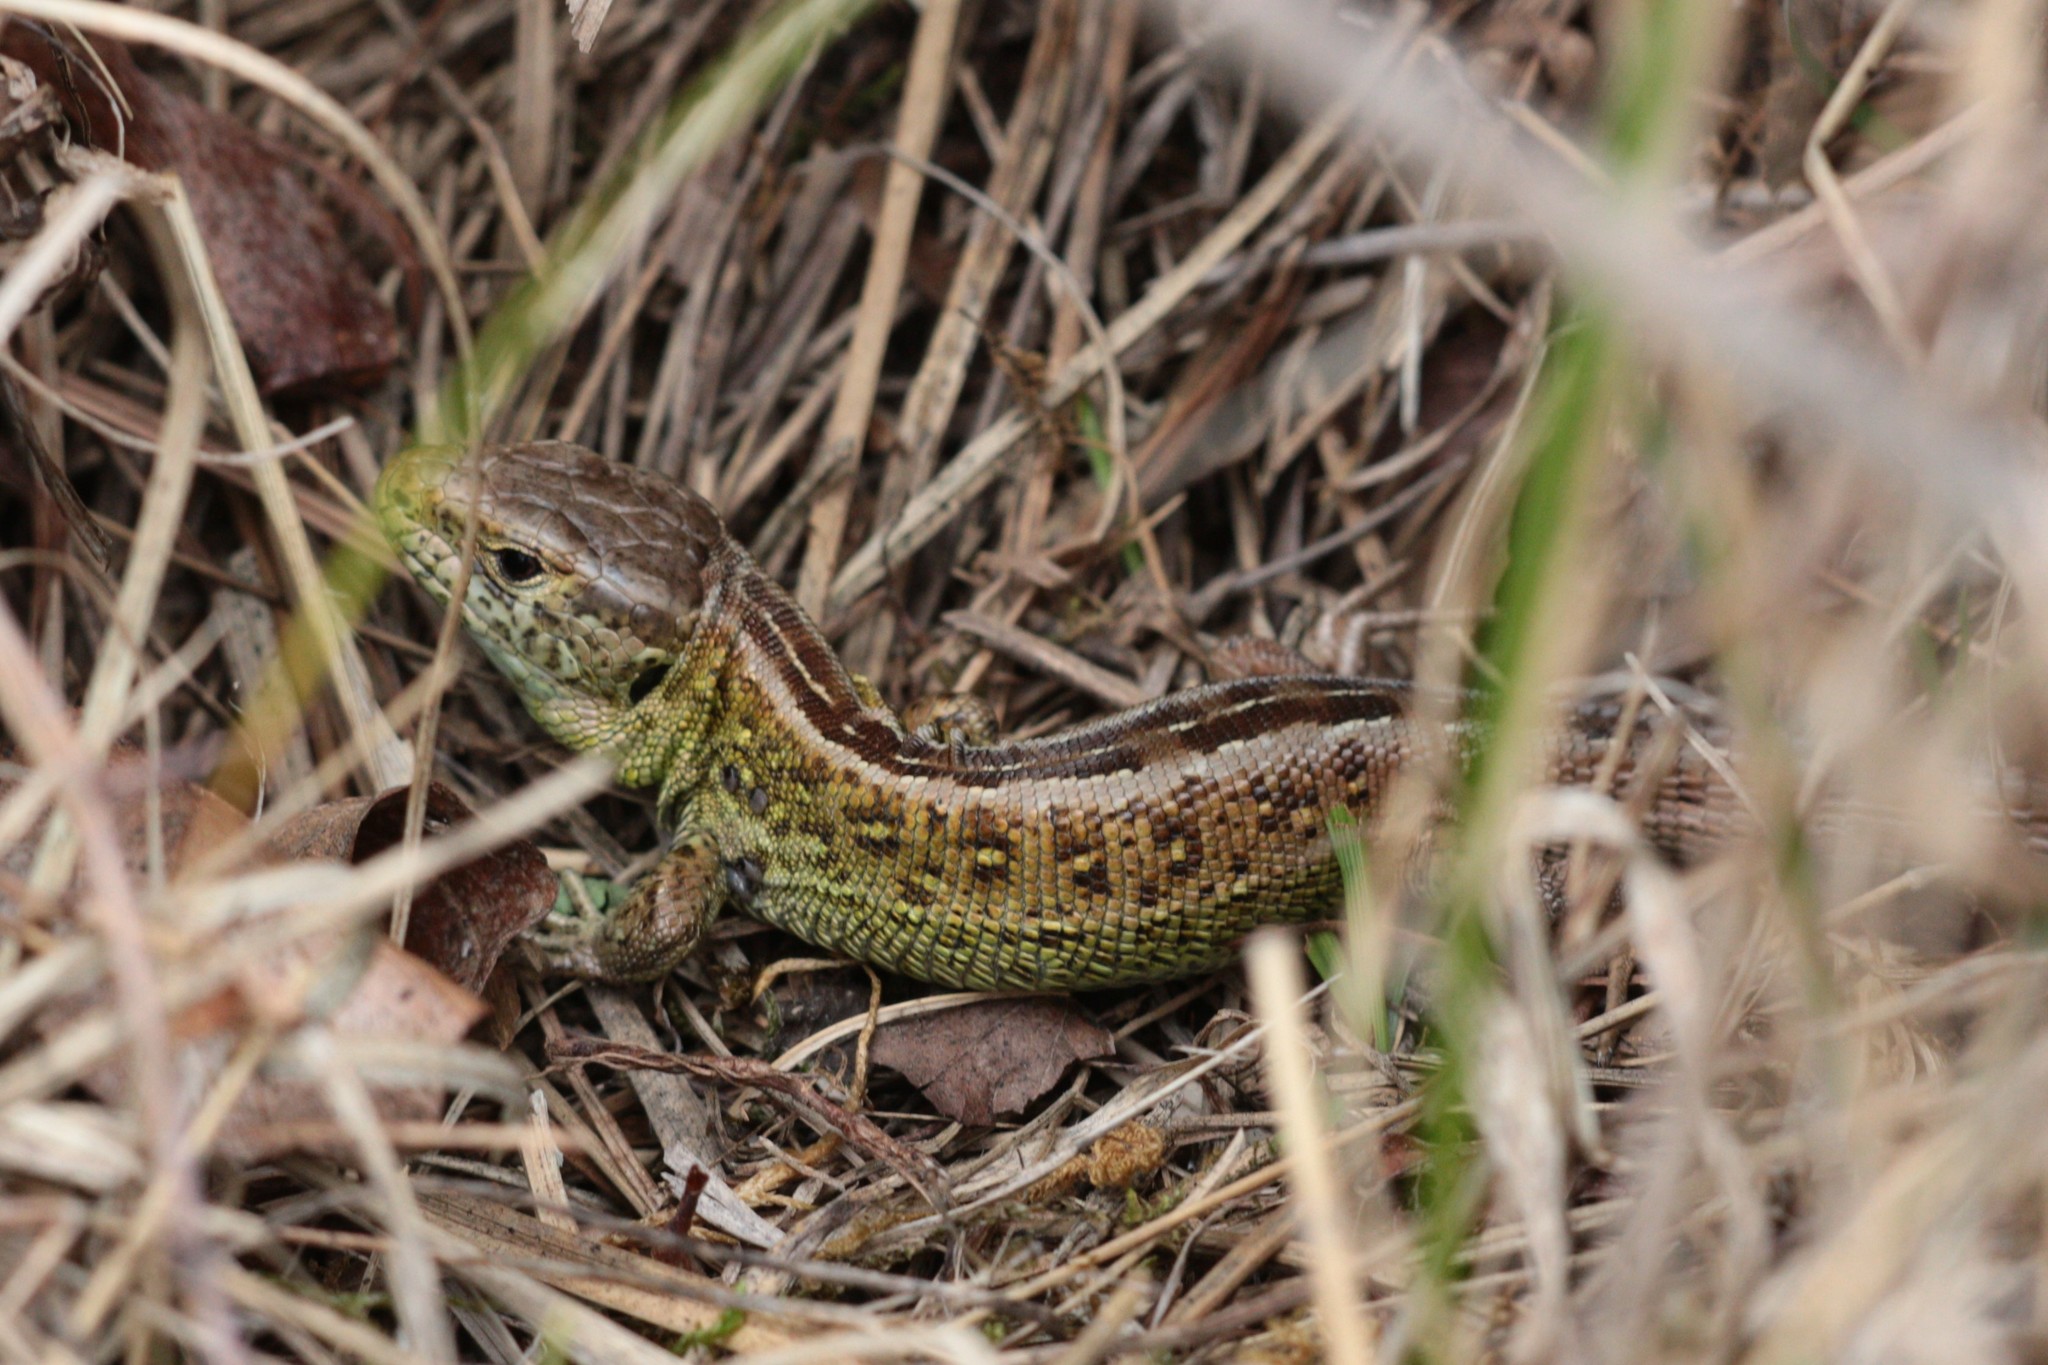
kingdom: Animalia
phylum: Chordata
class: Squamata
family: Lacertidae
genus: Lacerta
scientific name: Lacerta agilis
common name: Sand lizard
